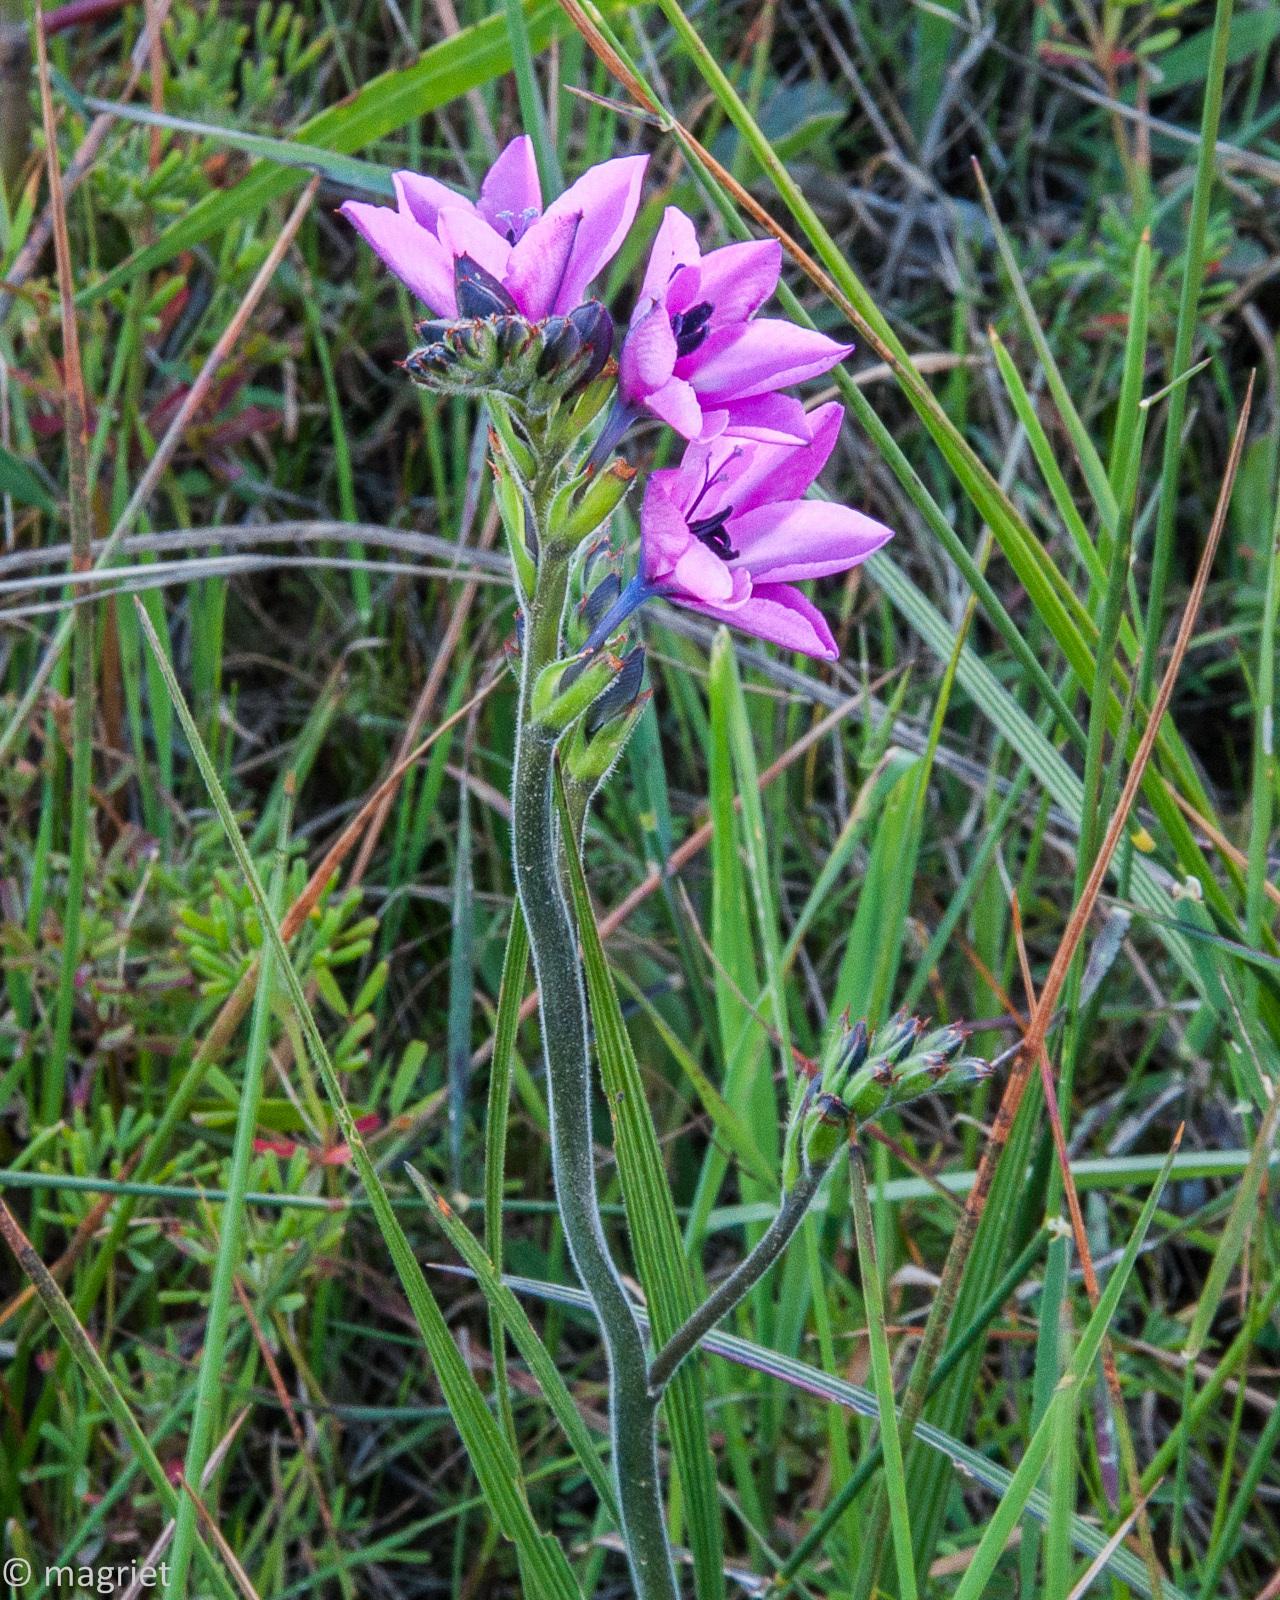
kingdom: Plantae
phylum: Tracheophyta
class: Liliopsida
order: Asparagales
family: Iridaceae
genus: Babiana
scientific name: Babiana purpurea
